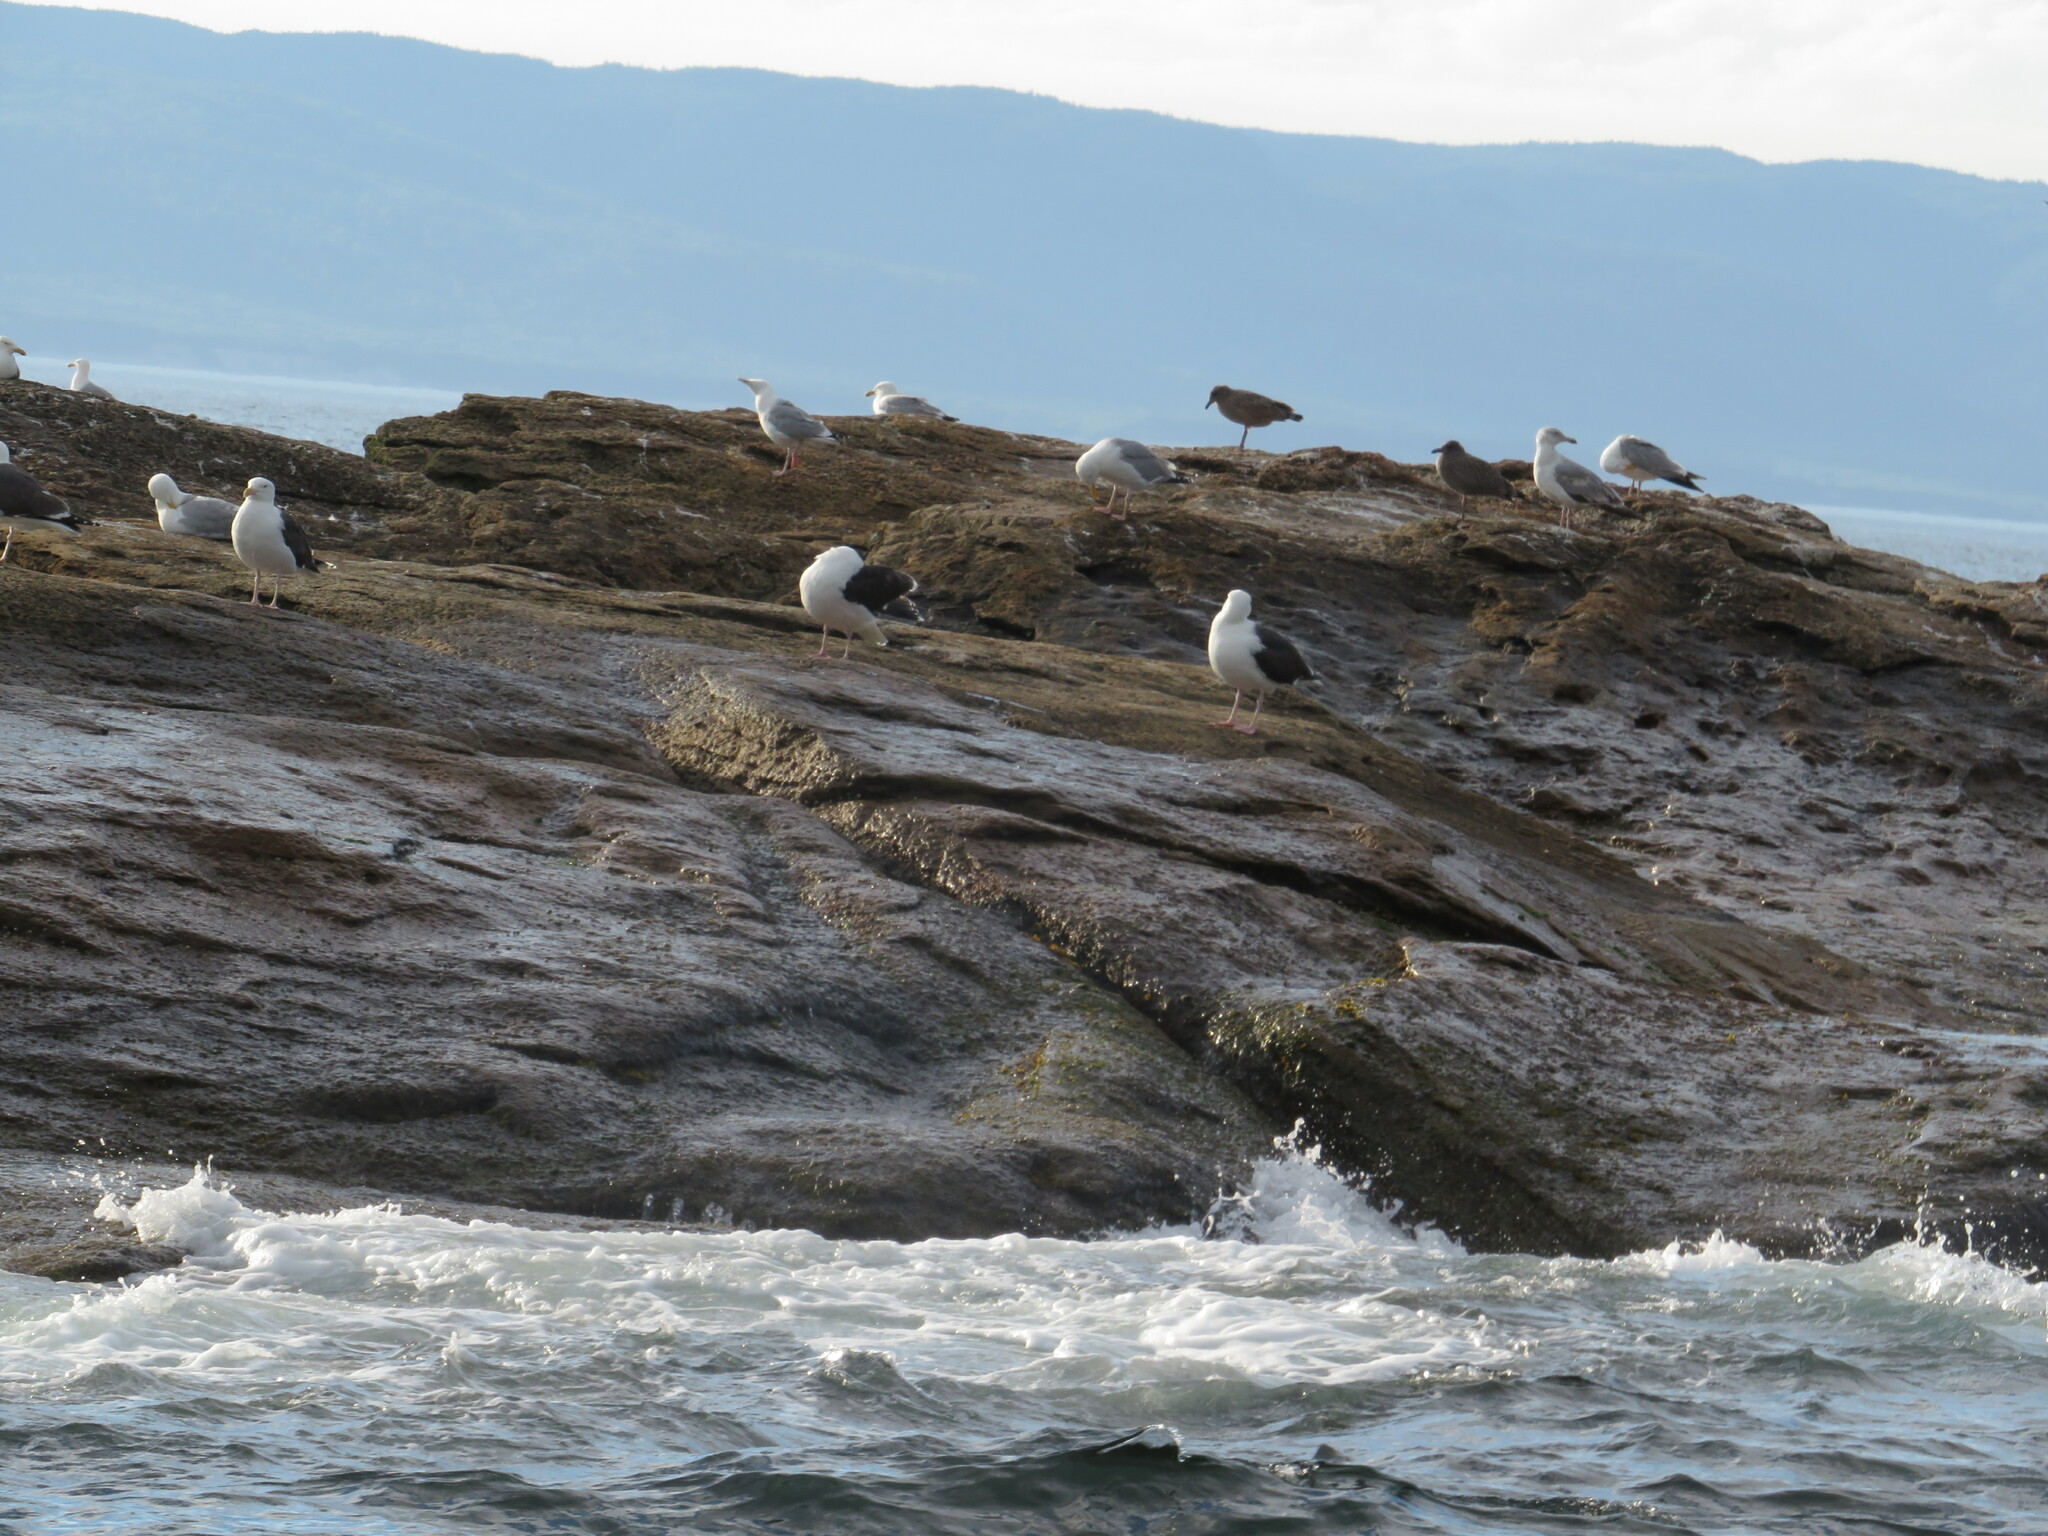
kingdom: Animalia
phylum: Chordata
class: Aves
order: Charadriiformes
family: Laridae
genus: Larus
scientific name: Larus marinus
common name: Great black-backed gull
